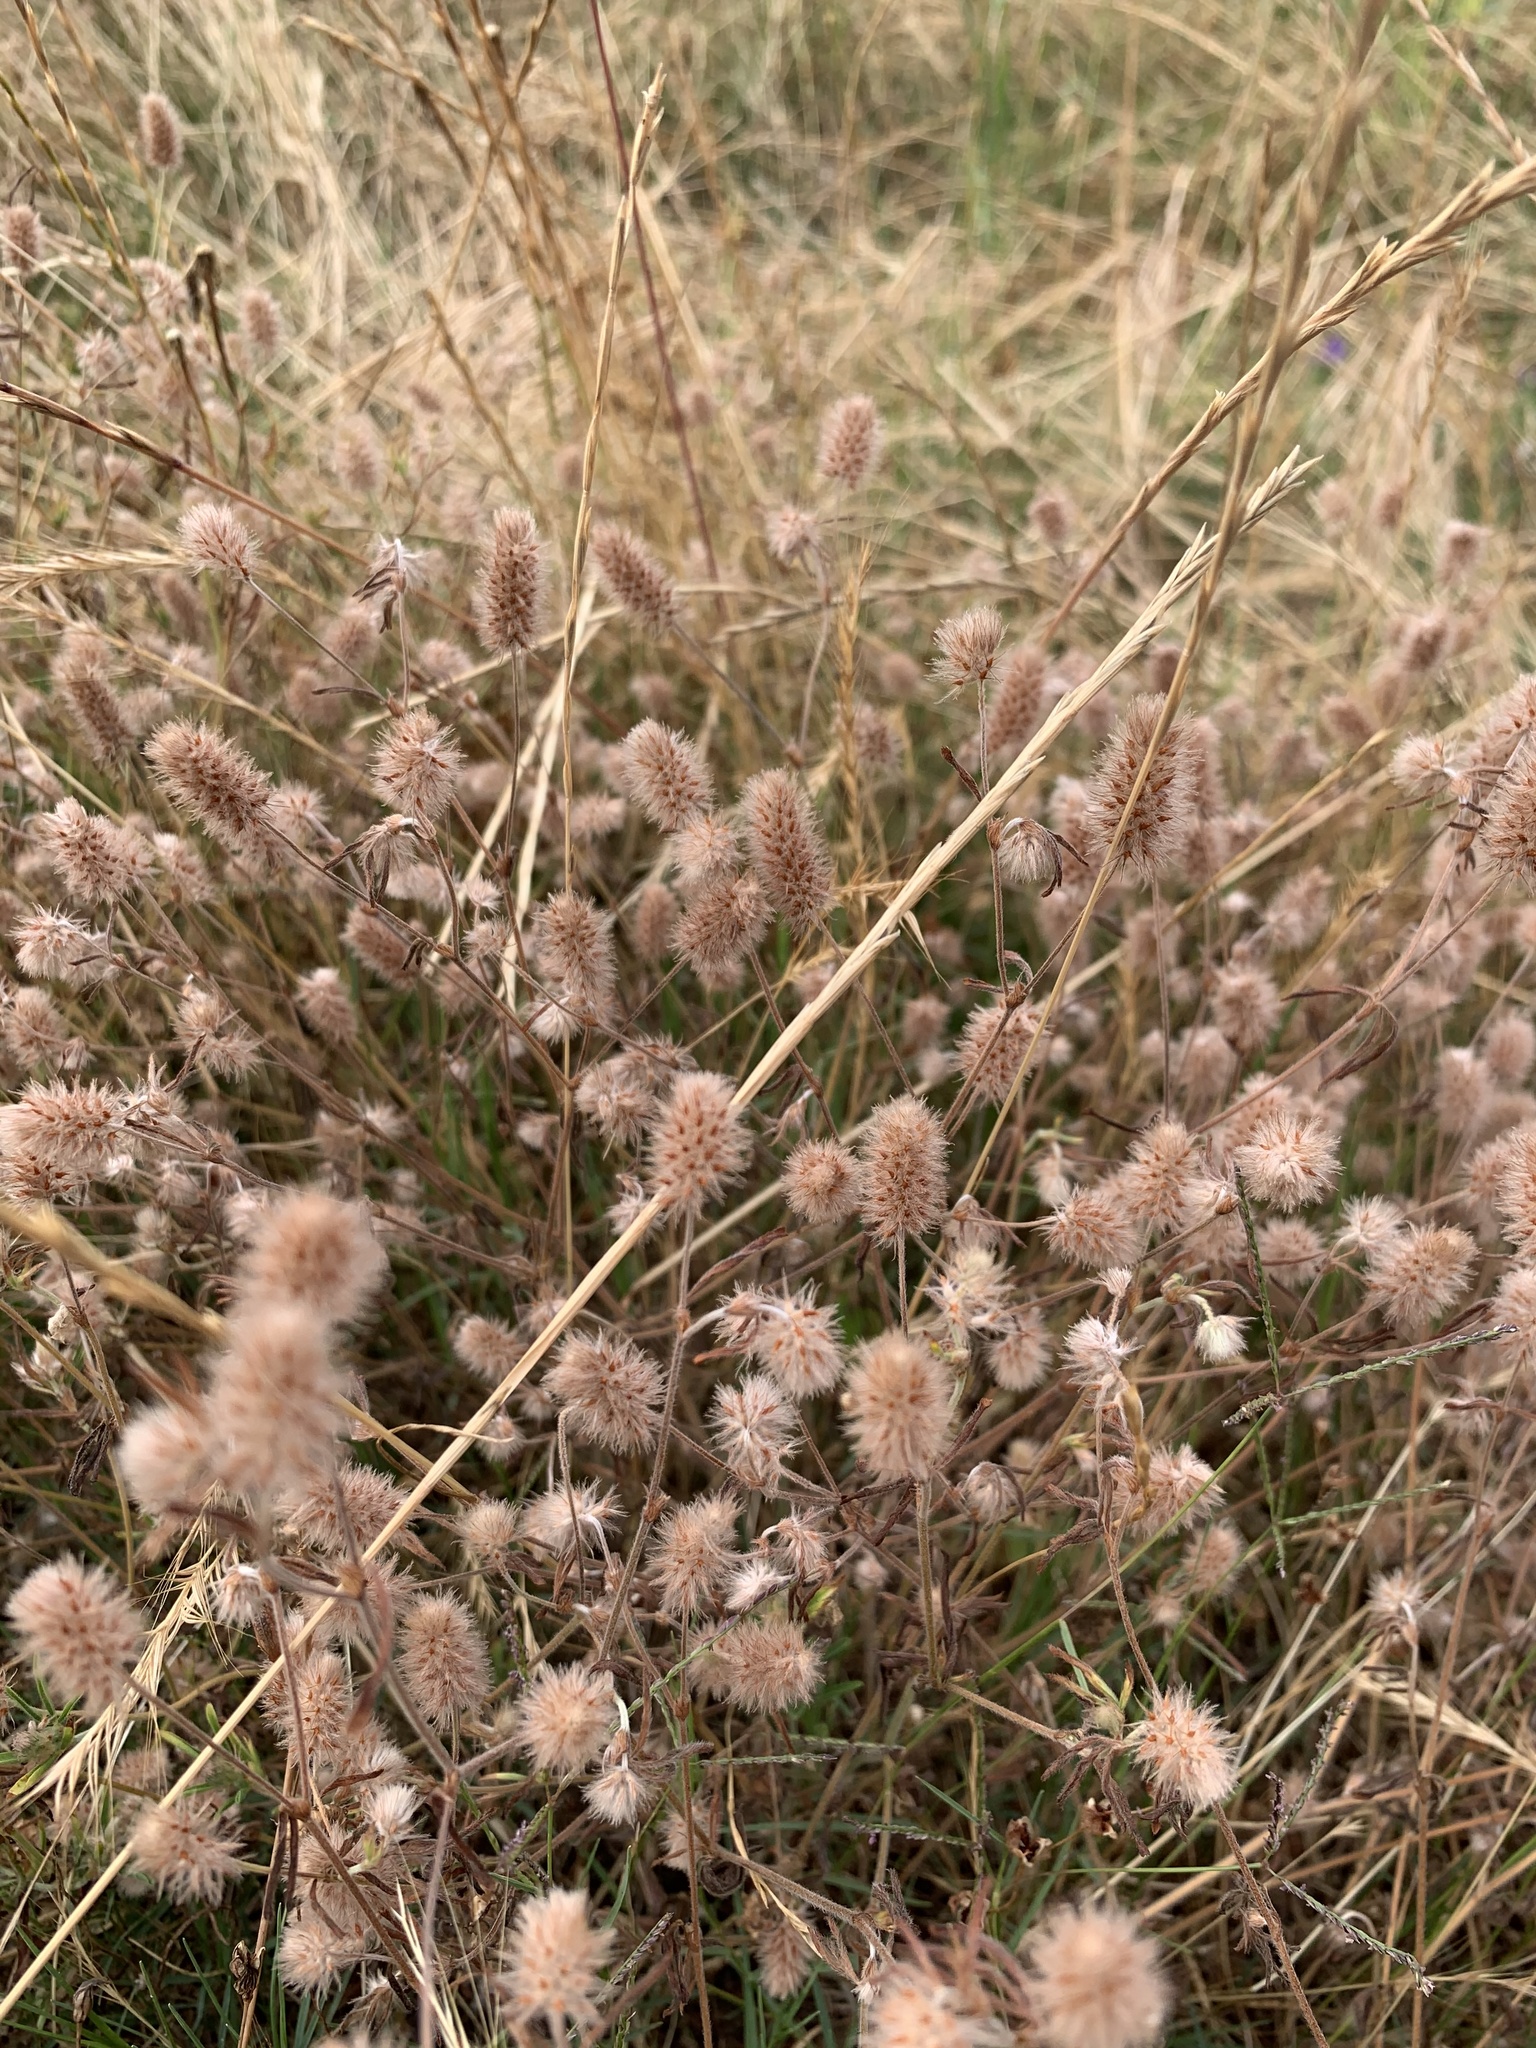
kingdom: Plantae
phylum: Tracheophyta
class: Magnoliopsida
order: Fabales
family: Fabaceae
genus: Trifolium
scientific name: Trifolium arvense
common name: Hare's-foot clover
